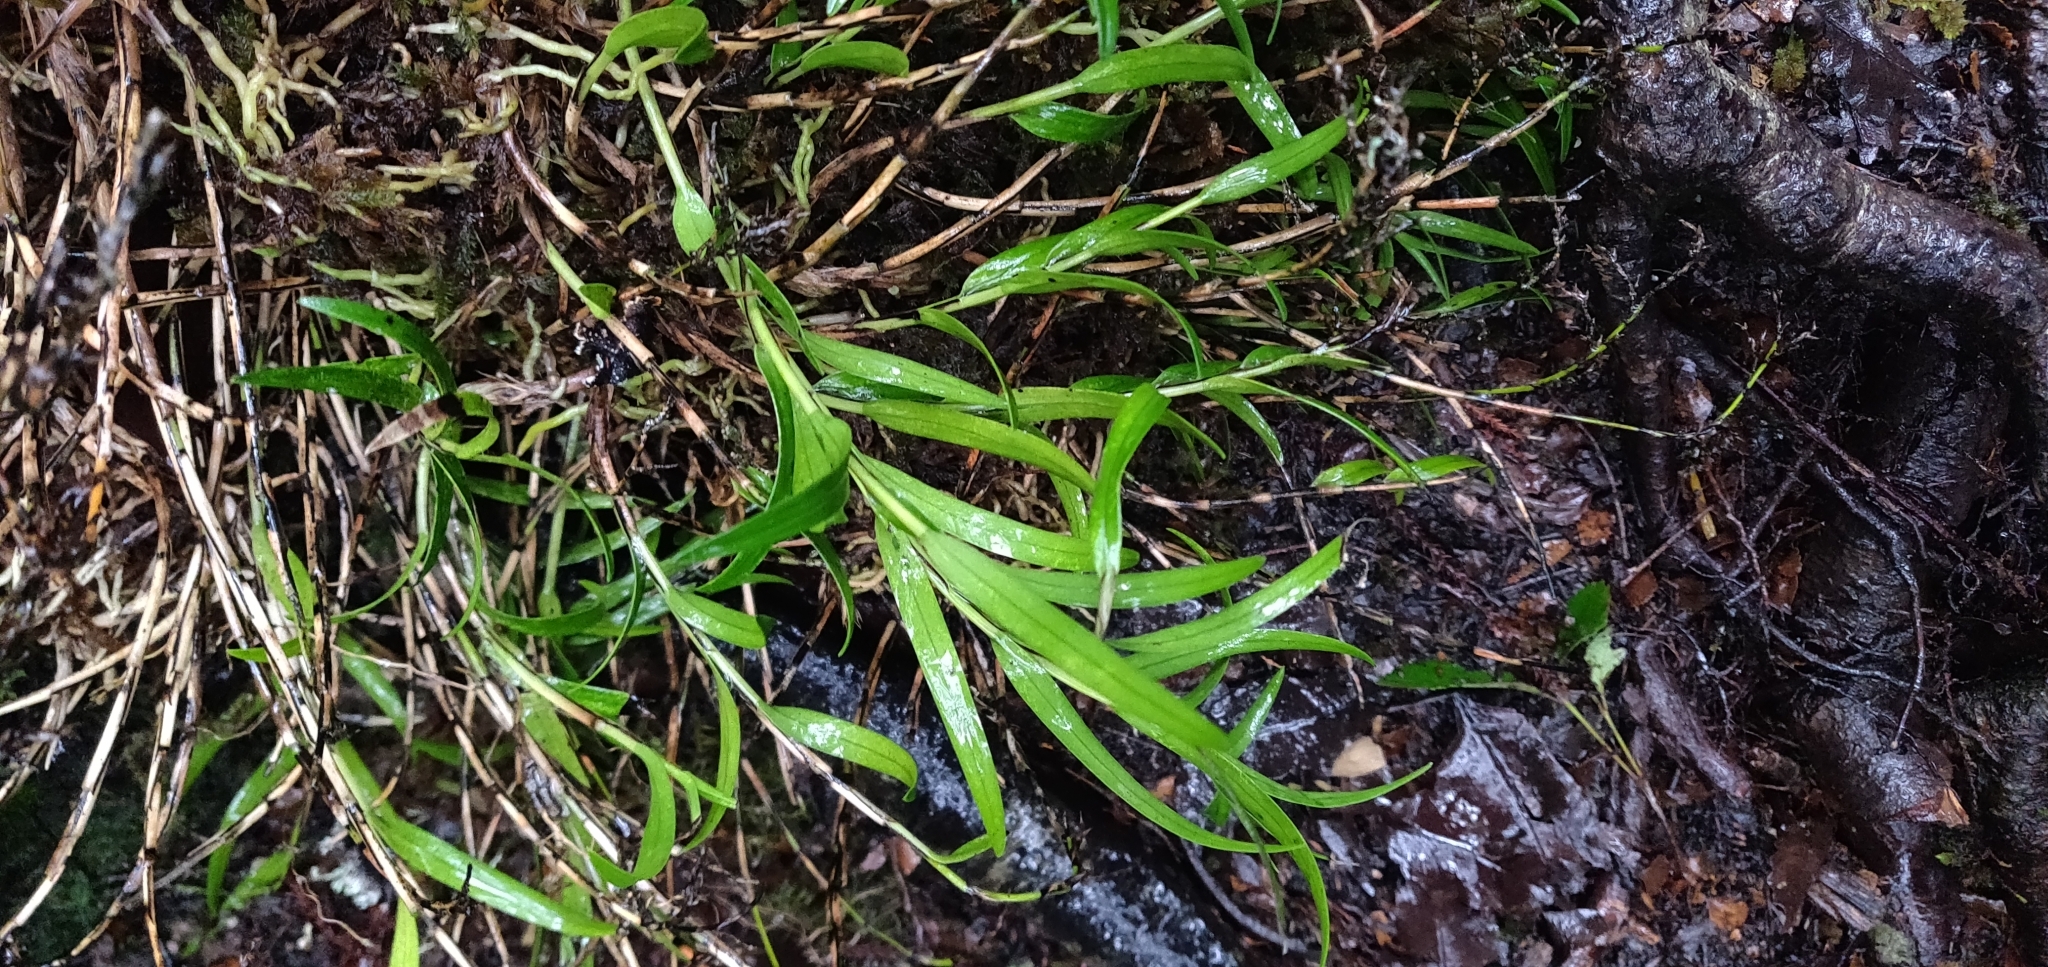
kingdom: Plantae
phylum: Tracheophyta
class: Liliopsida
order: Asparagales
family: Orchidaceae
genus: Earina
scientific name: Earina autumnalis
